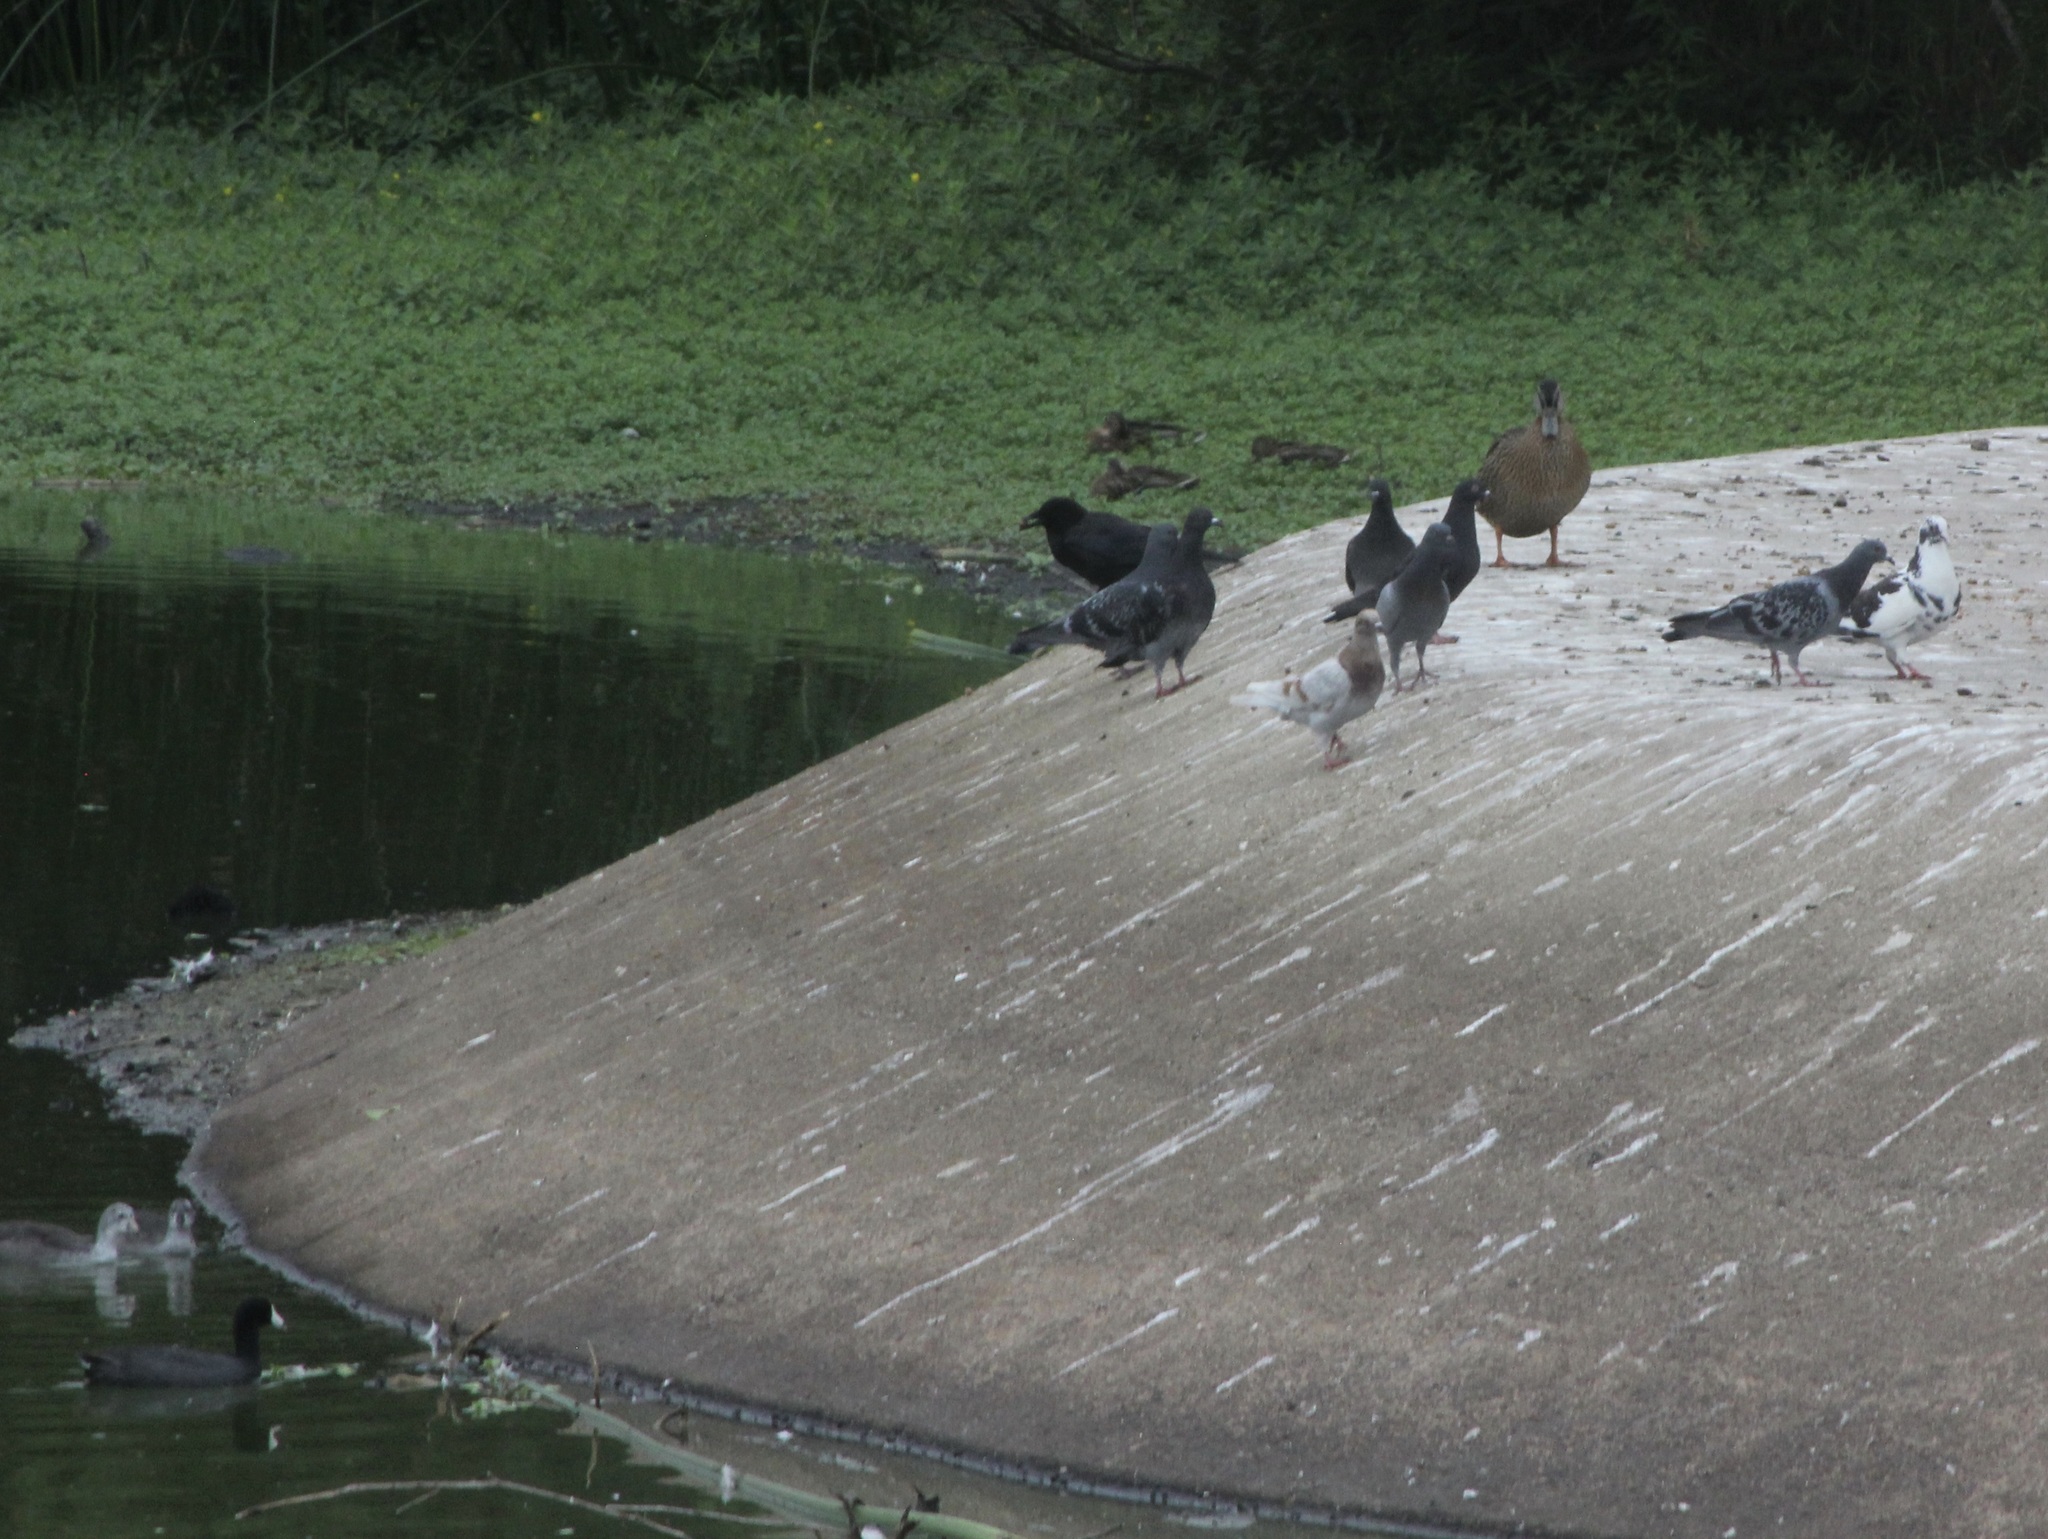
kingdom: Animalia
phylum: Chordata
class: Aves
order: Gruiformes
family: Rallidae
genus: Fulica
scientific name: Fulica americana
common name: American coot
